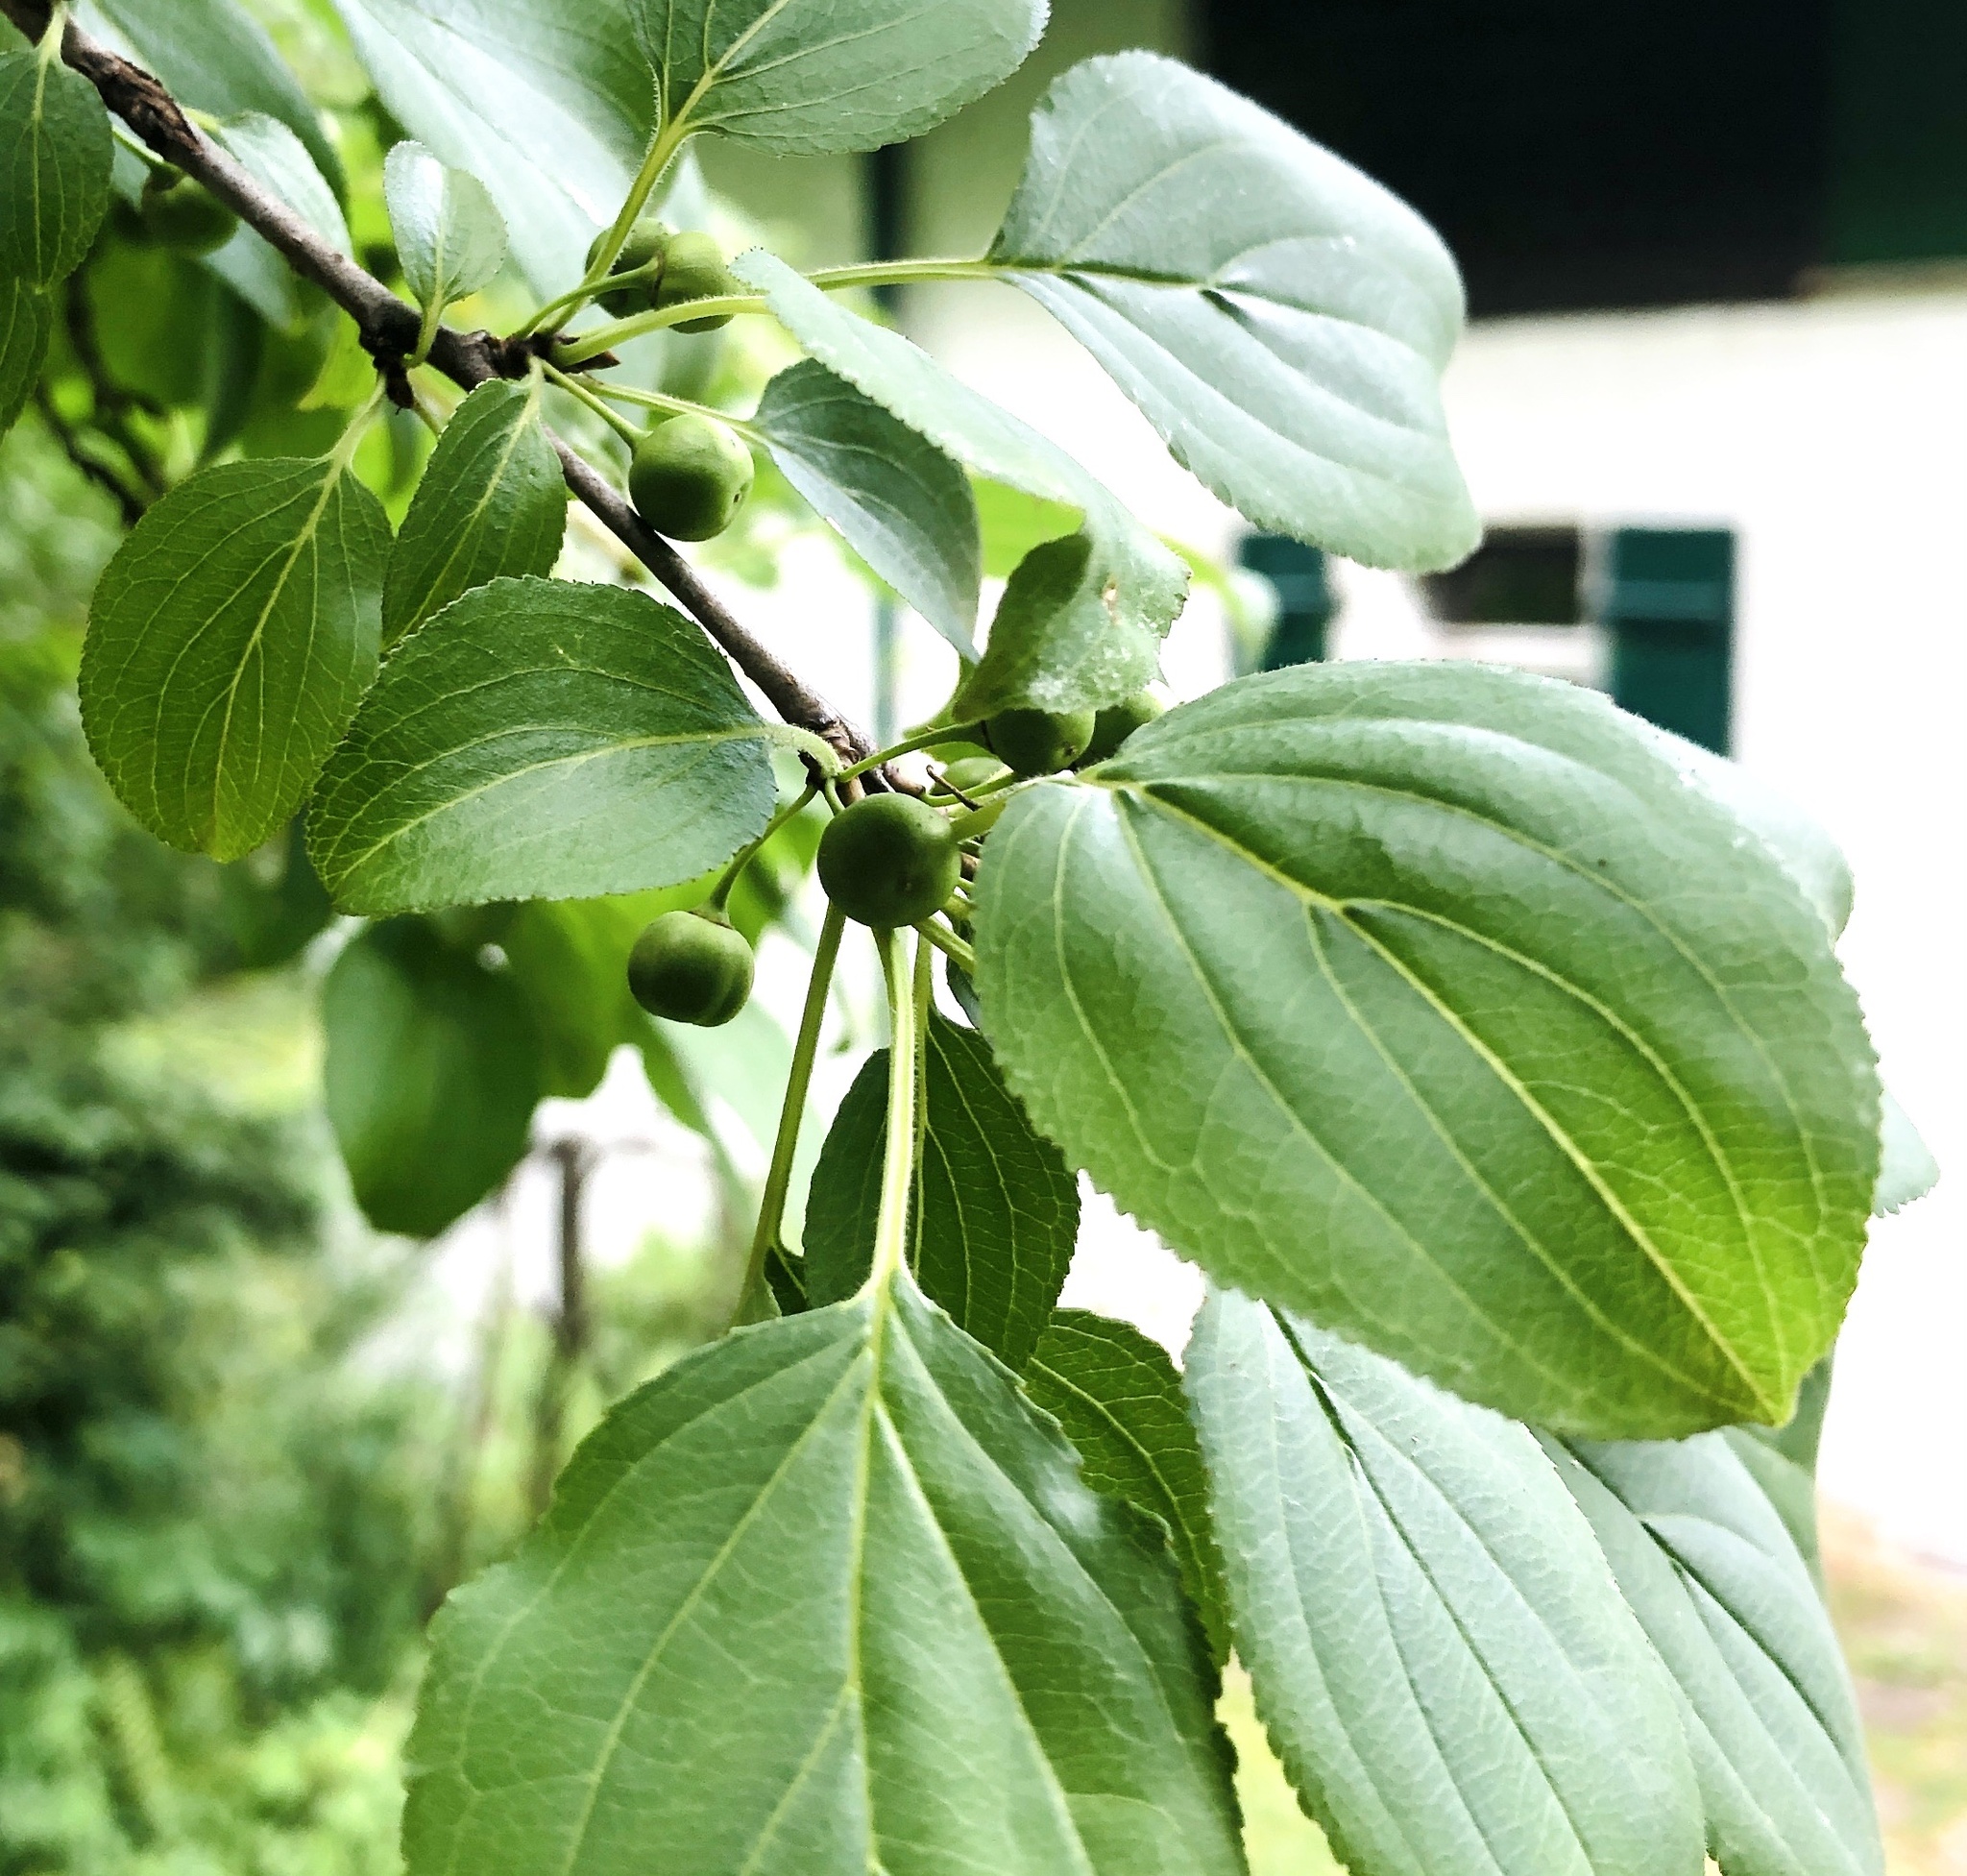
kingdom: Plantae
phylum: Tracheophyta
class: Magnoliopsida
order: Rosales
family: Rhamnaceae
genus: Rhamnus
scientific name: Rhamnus cathartica
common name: Common buckthorn
